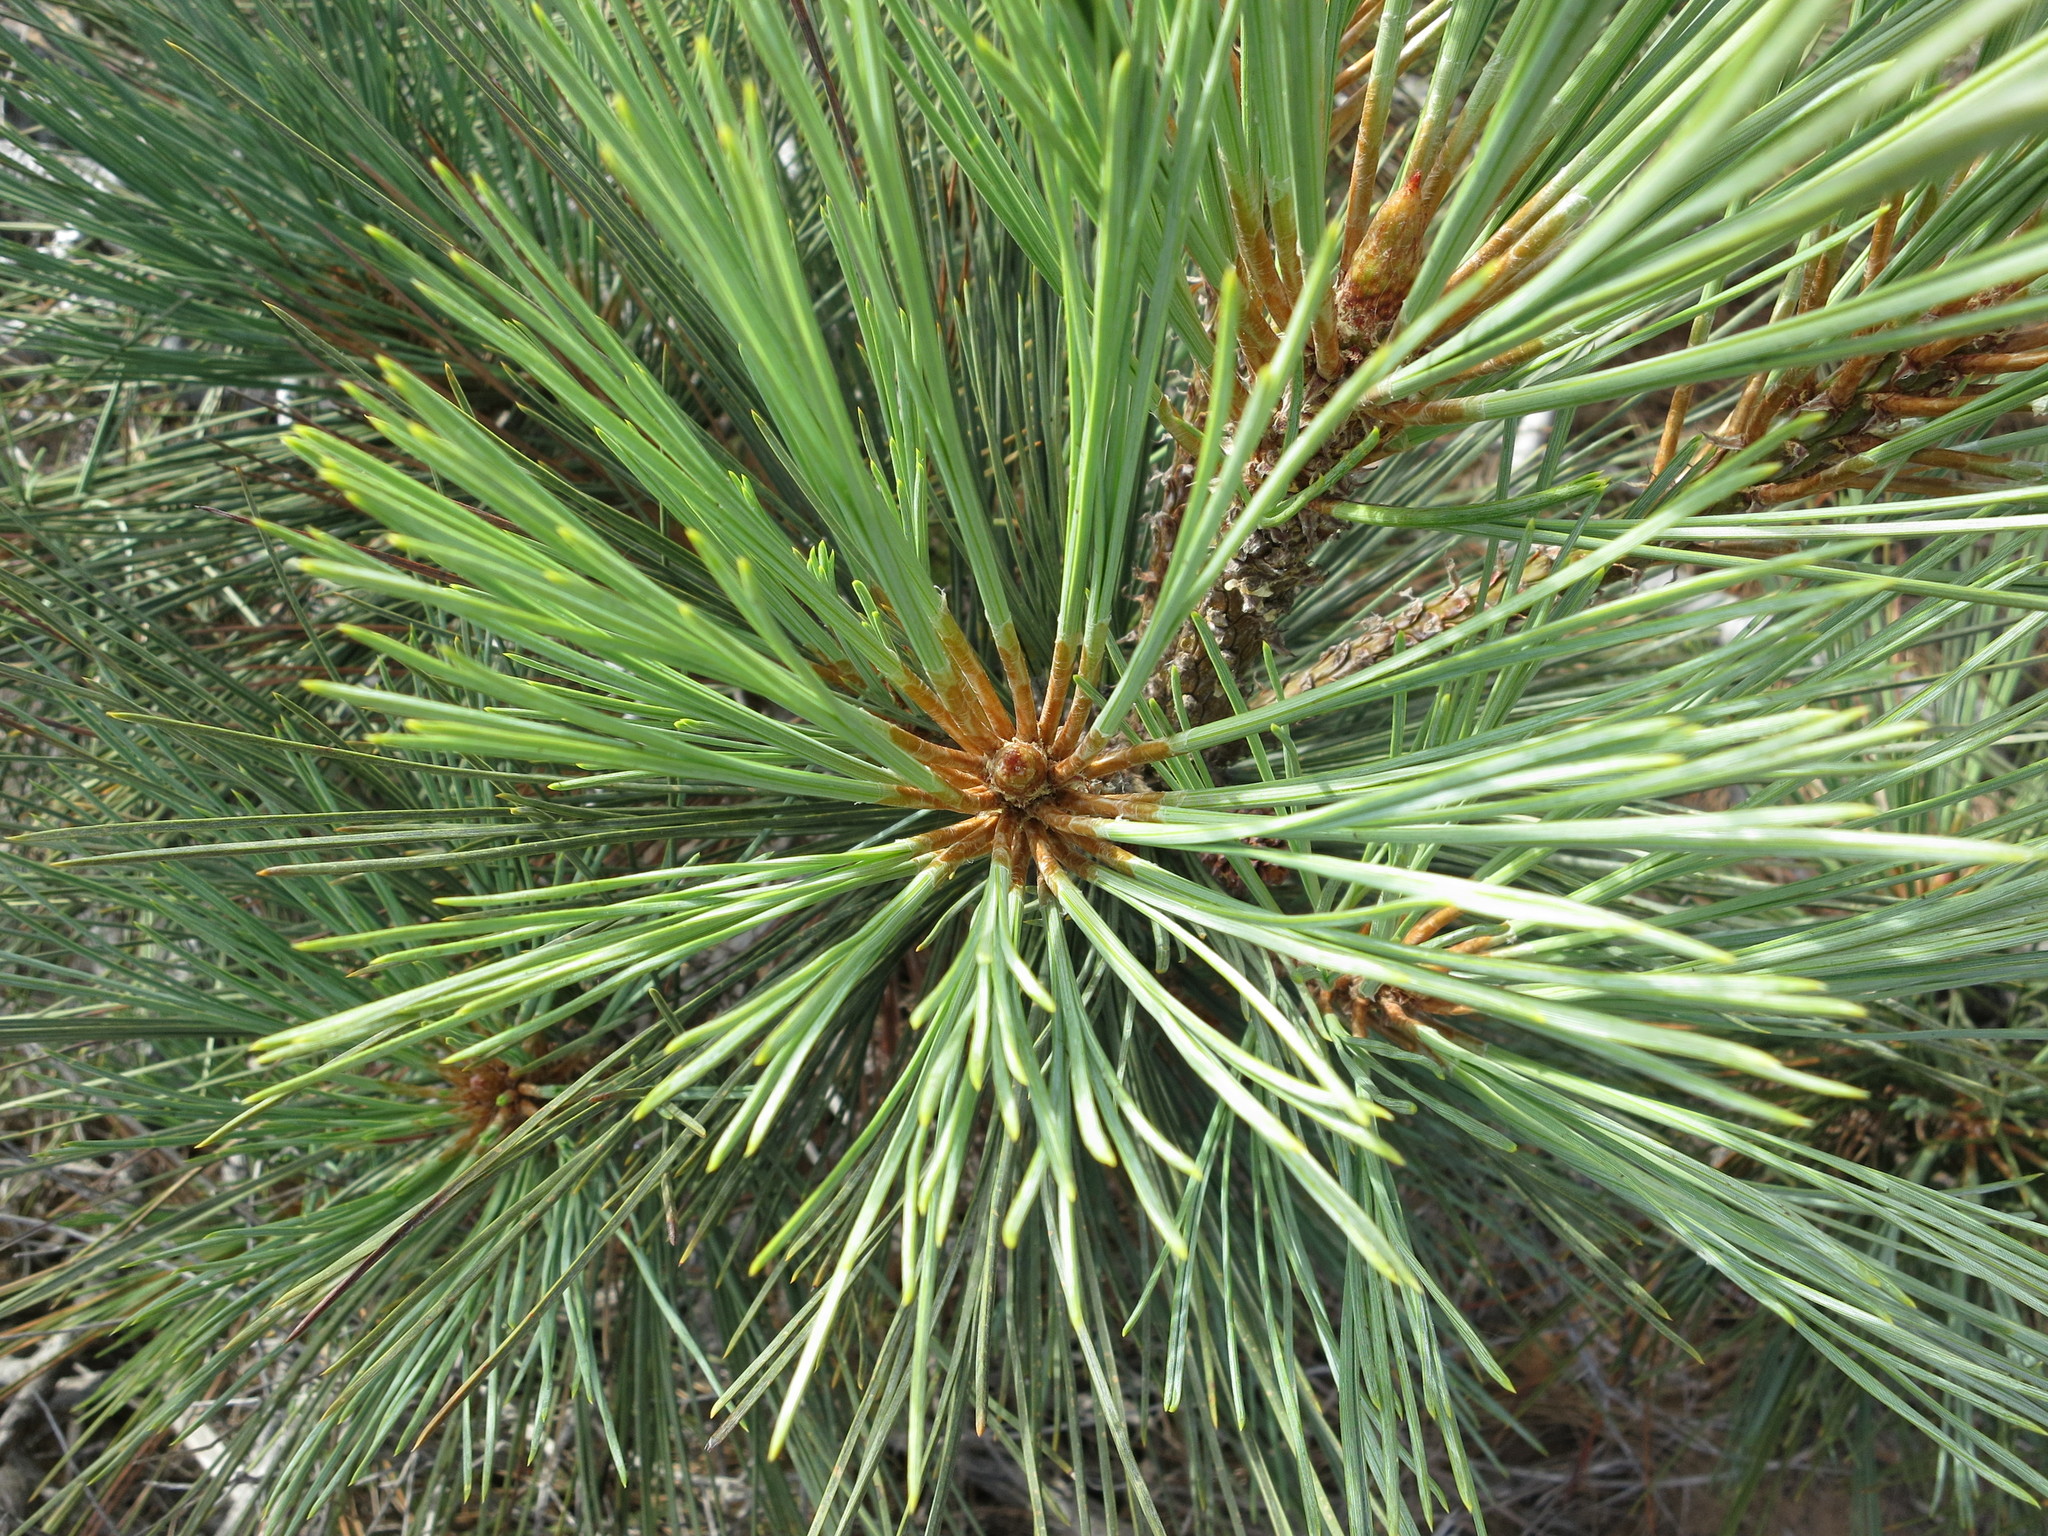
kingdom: Plantae
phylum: Tracheophyta
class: Pinopsida
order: Pinales
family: Pinaceae
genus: Pinus
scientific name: Pinus torreyana
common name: Torrey pine
